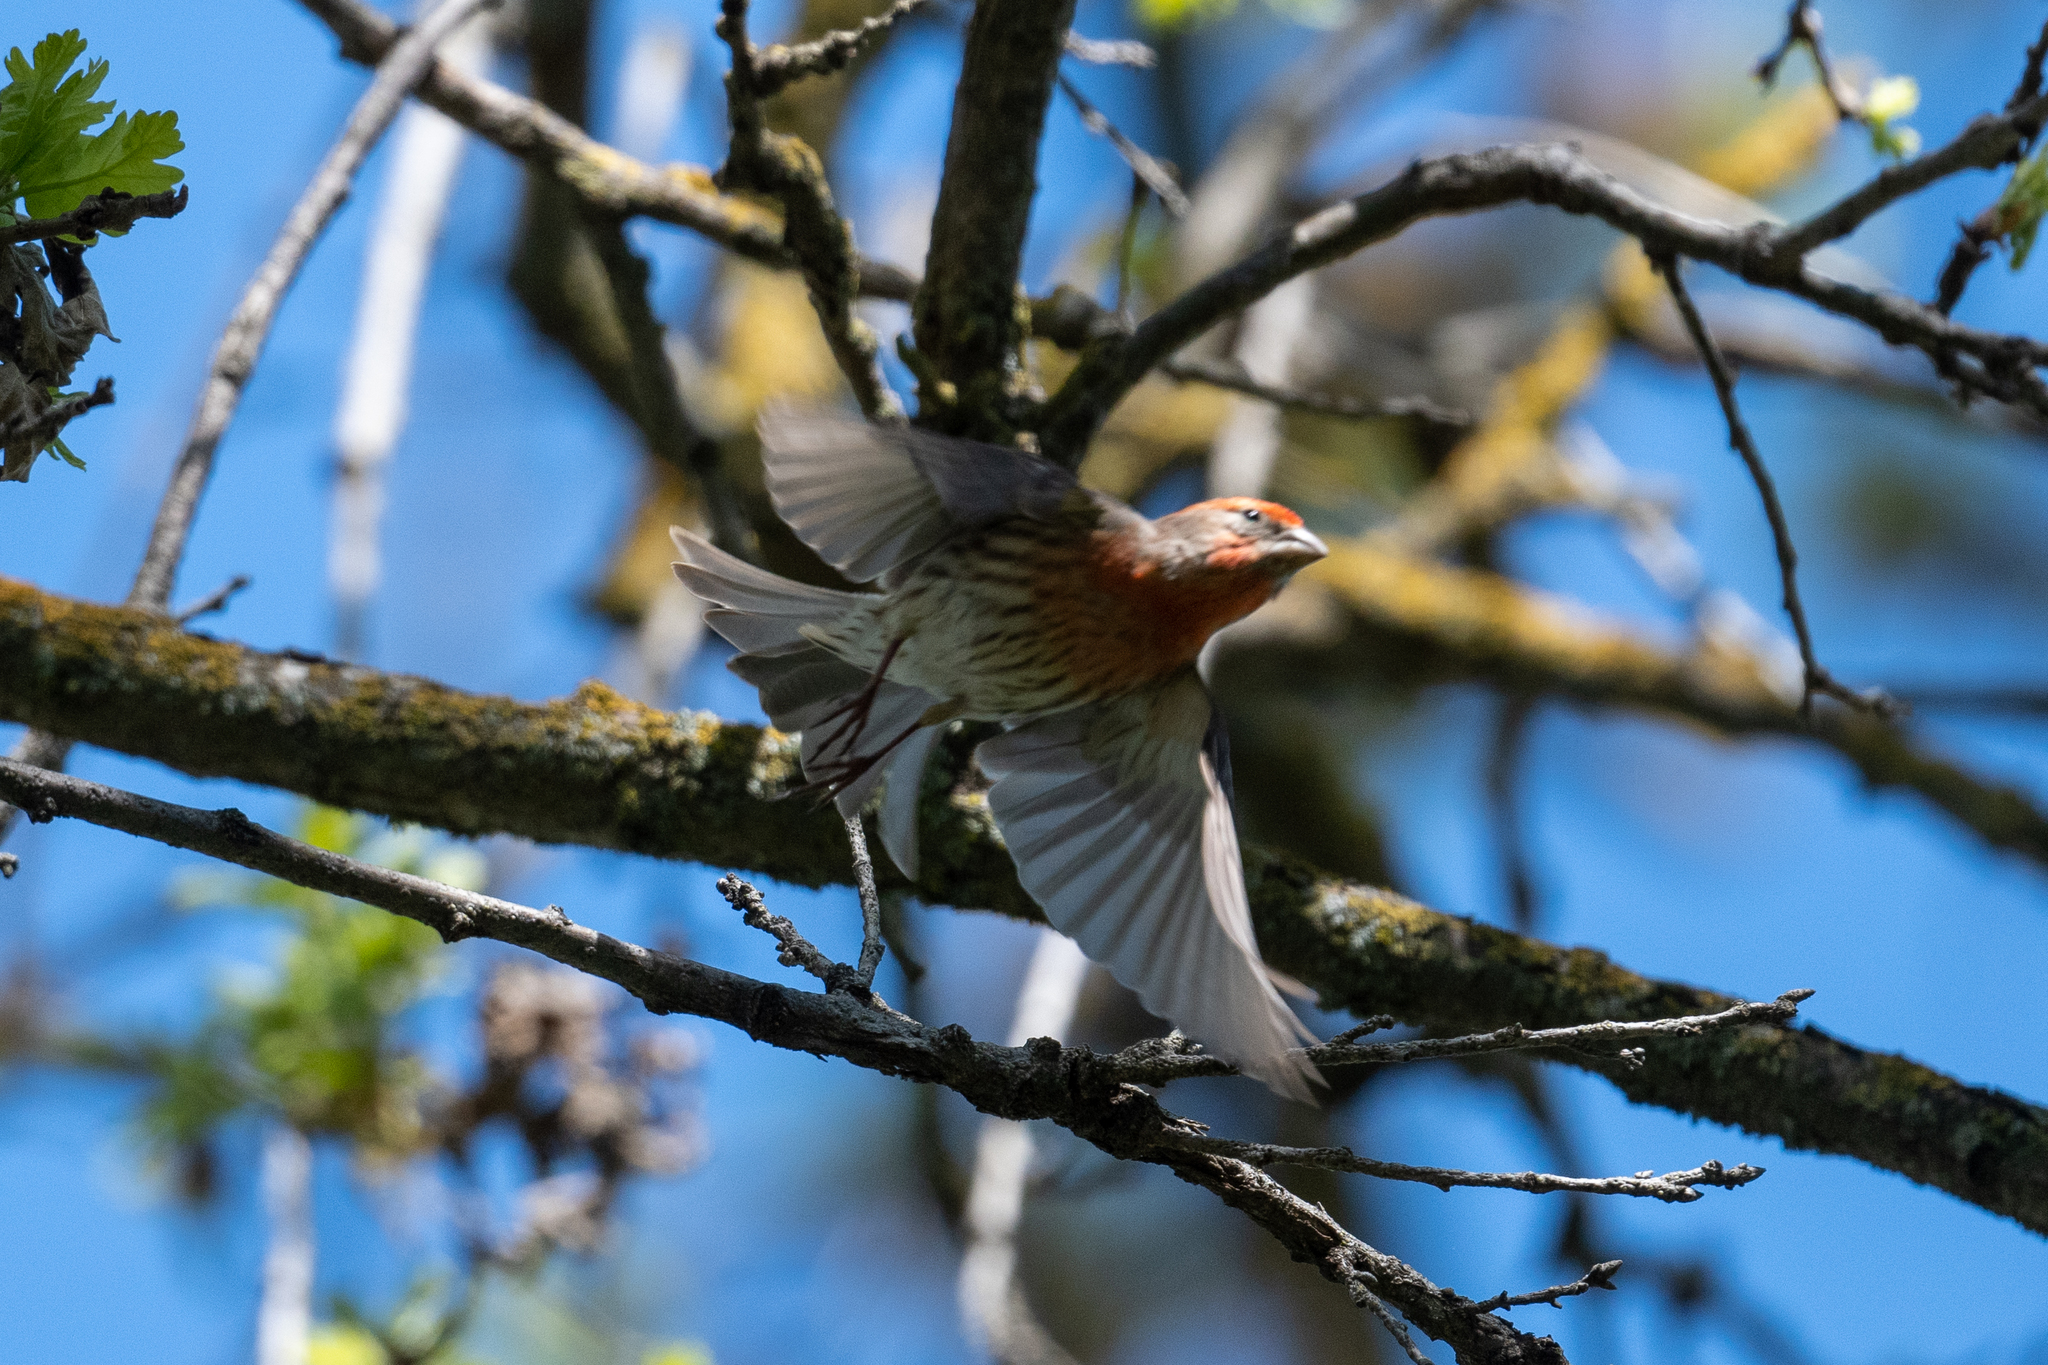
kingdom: Animalia
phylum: Chordata
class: Aves
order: Passeriformes
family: Fringillidae
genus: Haemorhous
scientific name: Haemorhous mexicanus
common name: House finch
